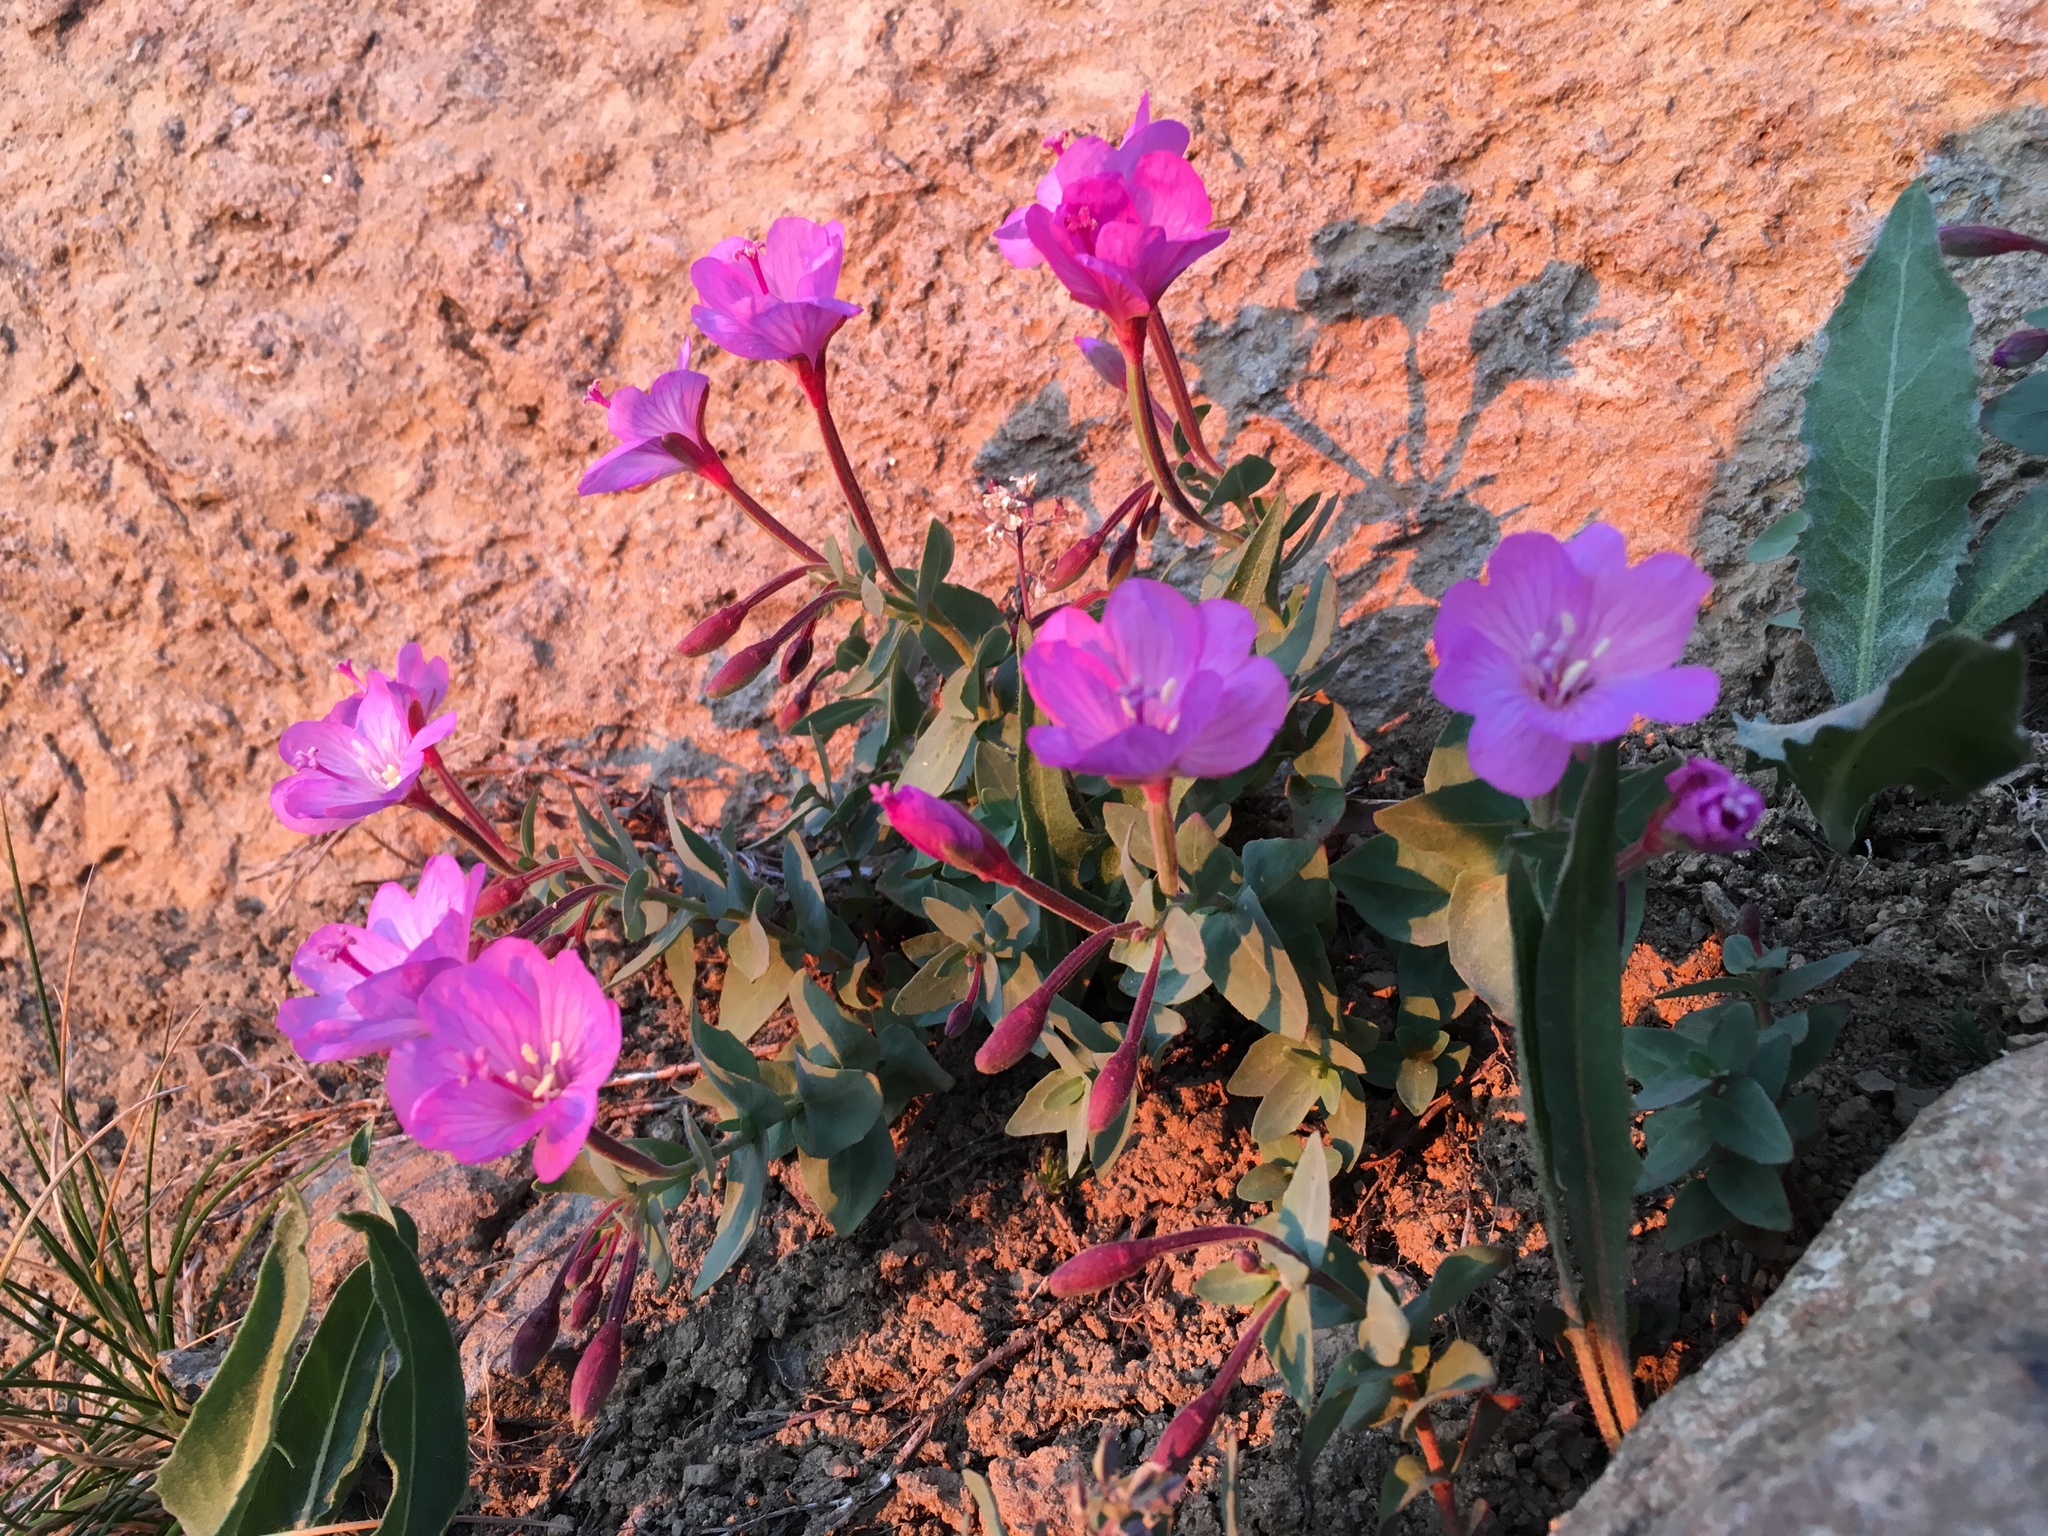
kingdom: Plantae
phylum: Tracheophyta
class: Magnoliopsida
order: Myrtales
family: Onagraceae
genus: Epilobium
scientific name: Epilobium siskiyouense
